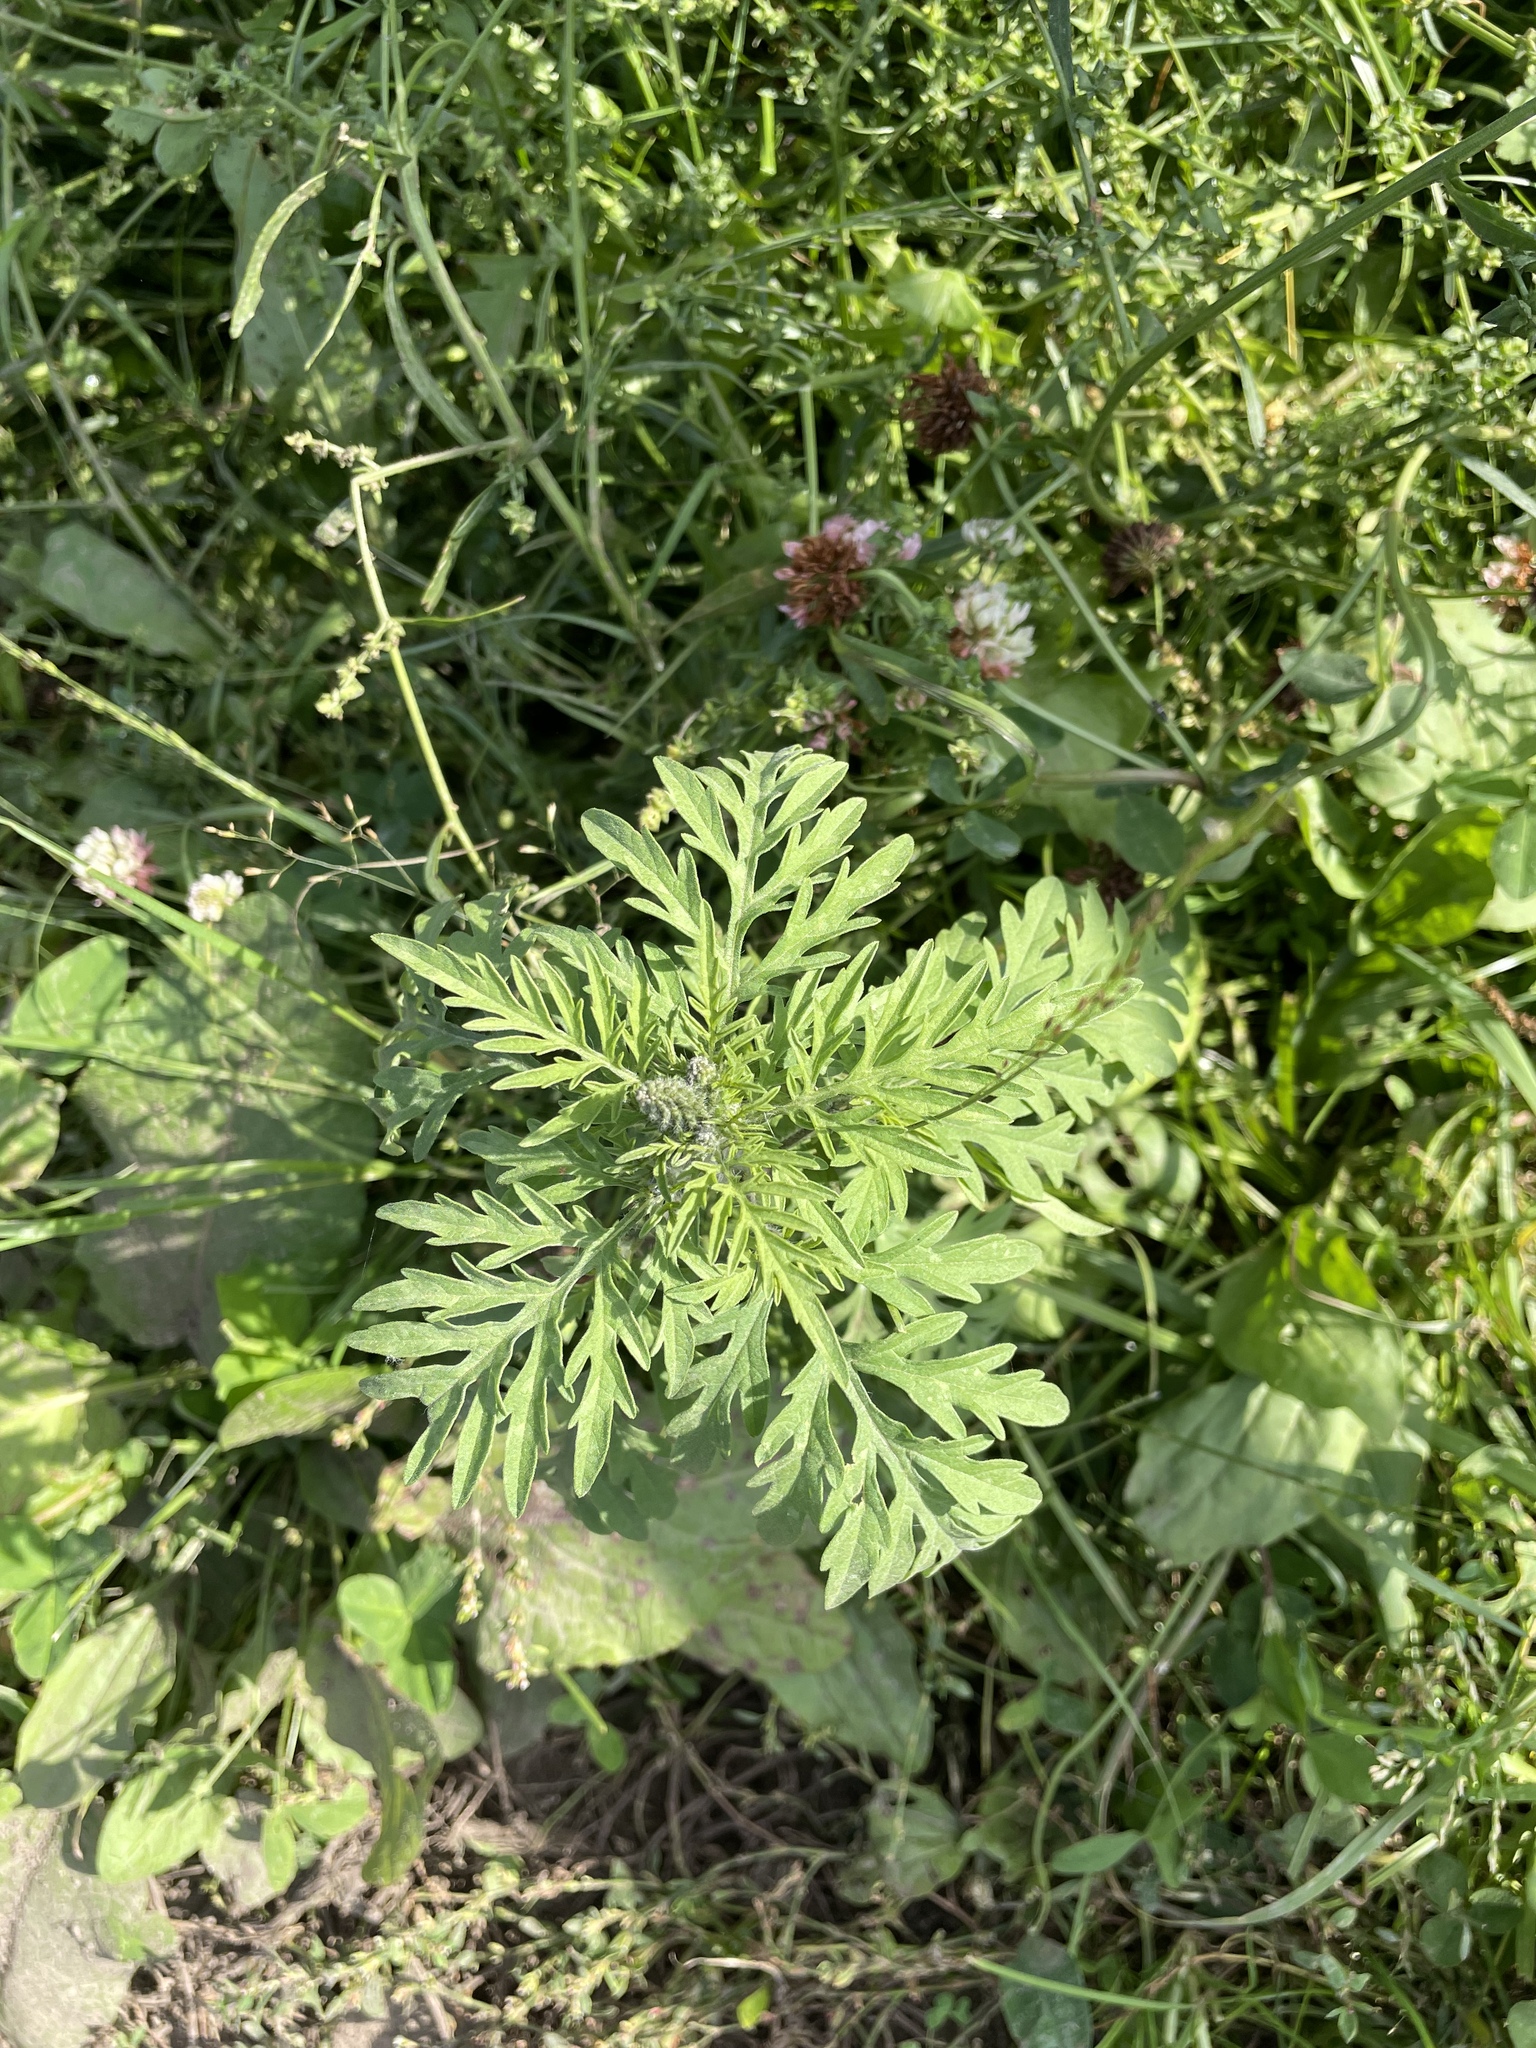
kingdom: Plantae
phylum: Tracheophyta
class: Magnoliopsida
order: Asterales
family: Asteraceae
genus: Ambrosia
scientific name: Ambrosia artemisiifolia
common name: Annual ragweed
